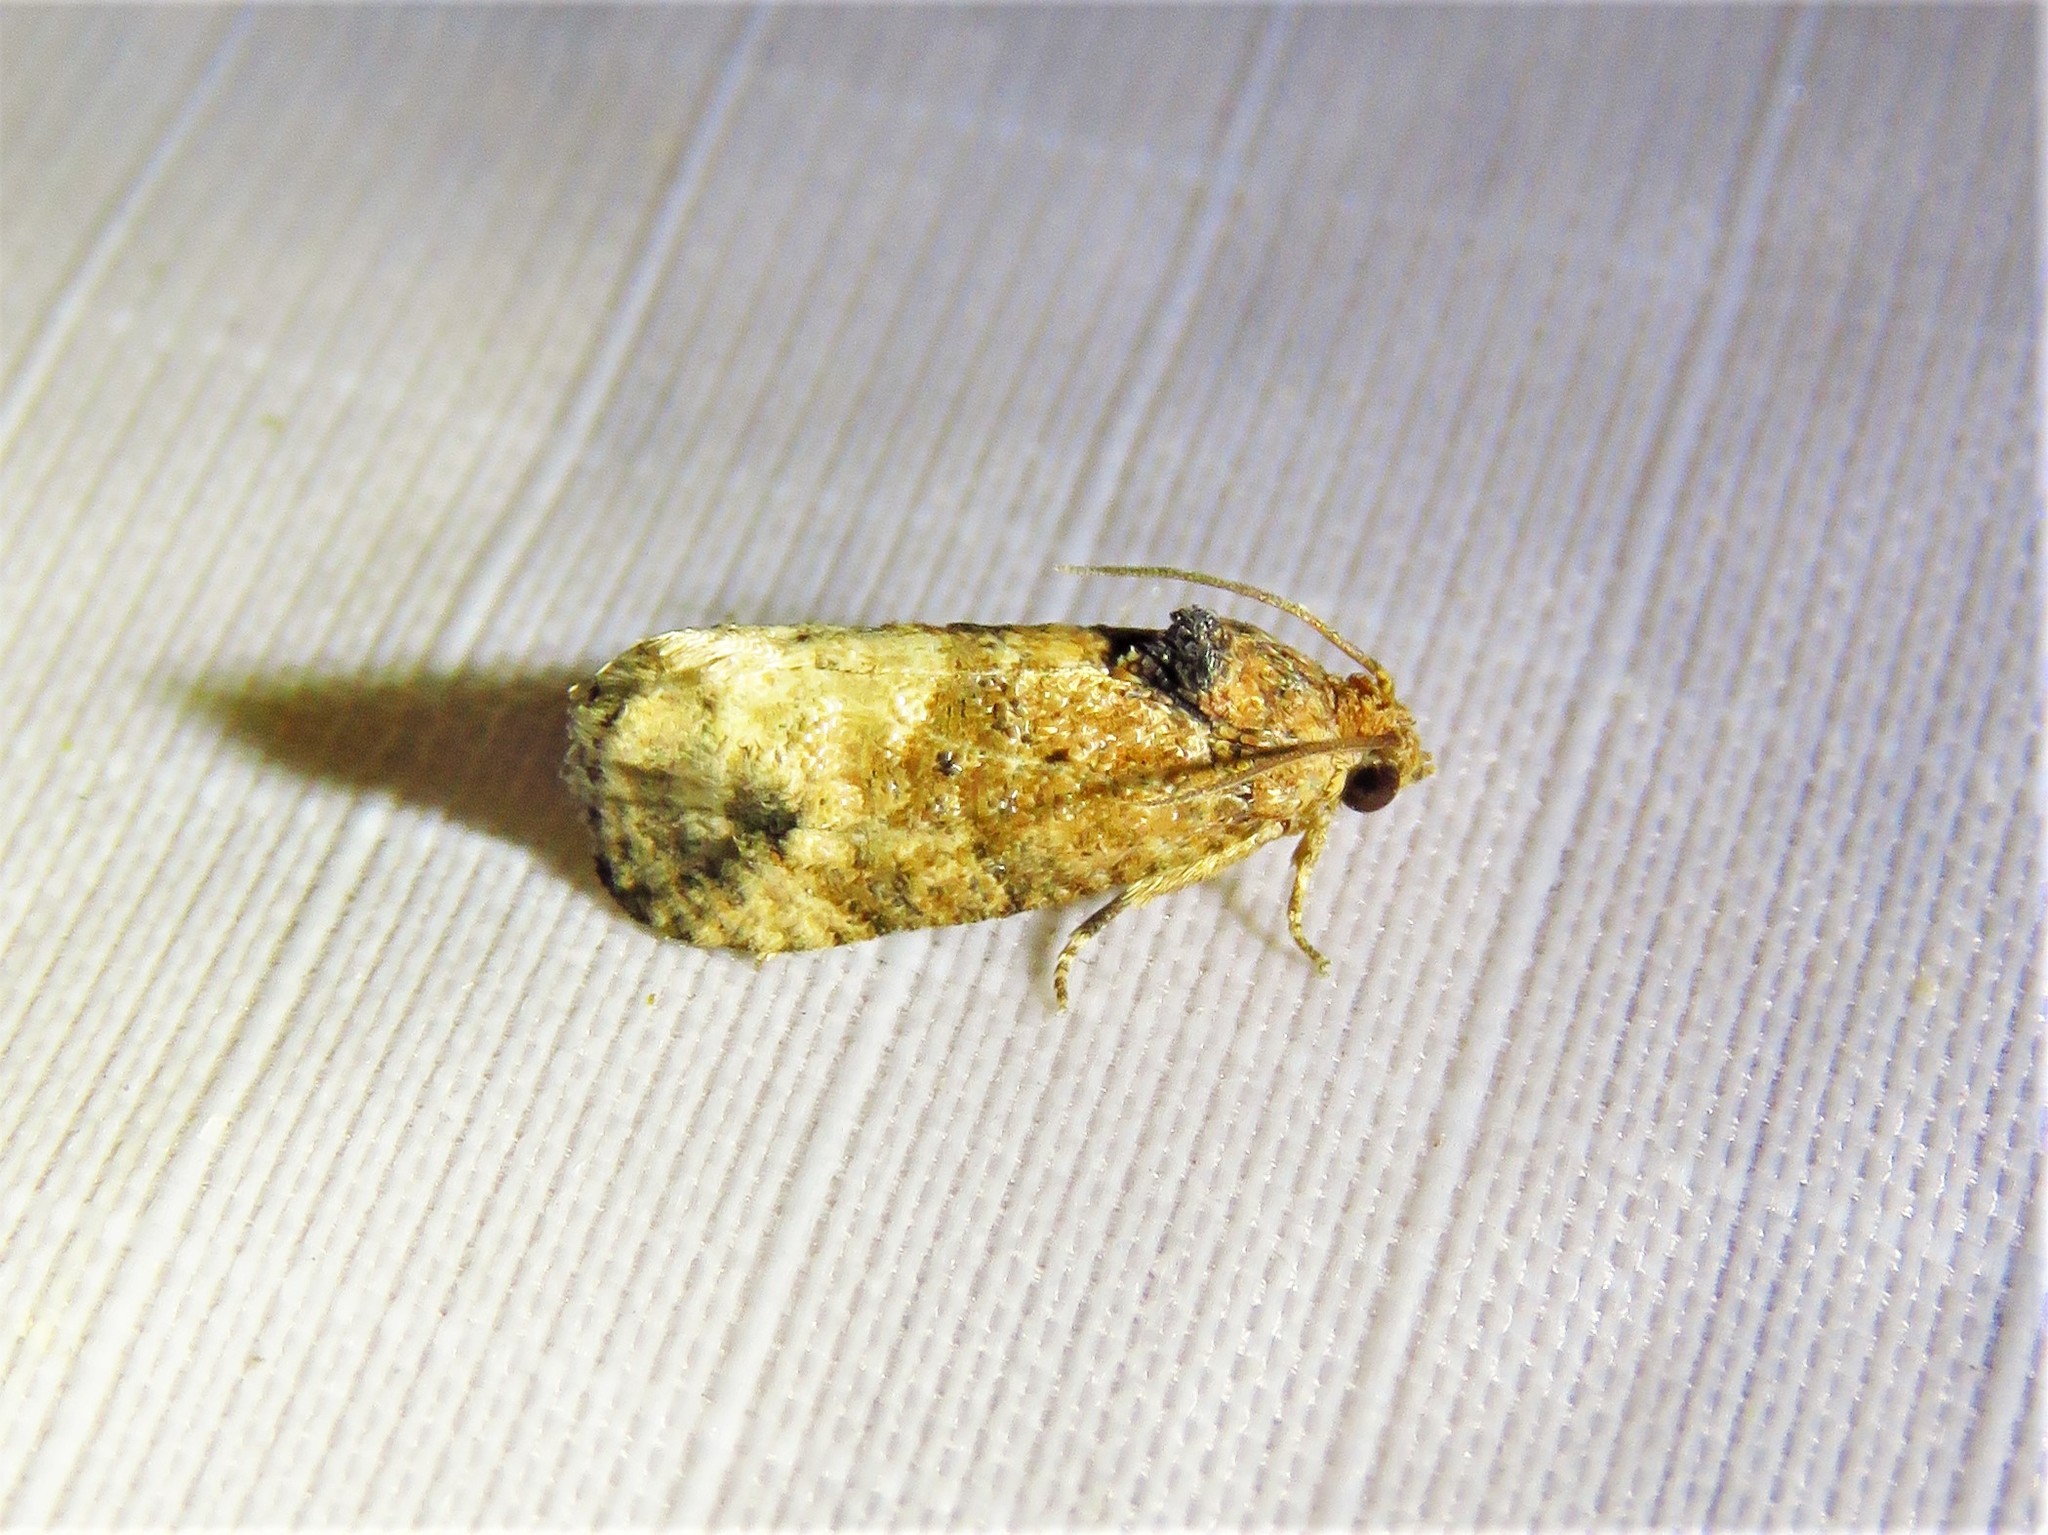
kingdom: Animalia
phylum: Arthropoda
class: Insecta
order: Lepidoptera
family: Tortricidae
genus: Ecdytolopha
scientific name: Ecdytolopha mana
